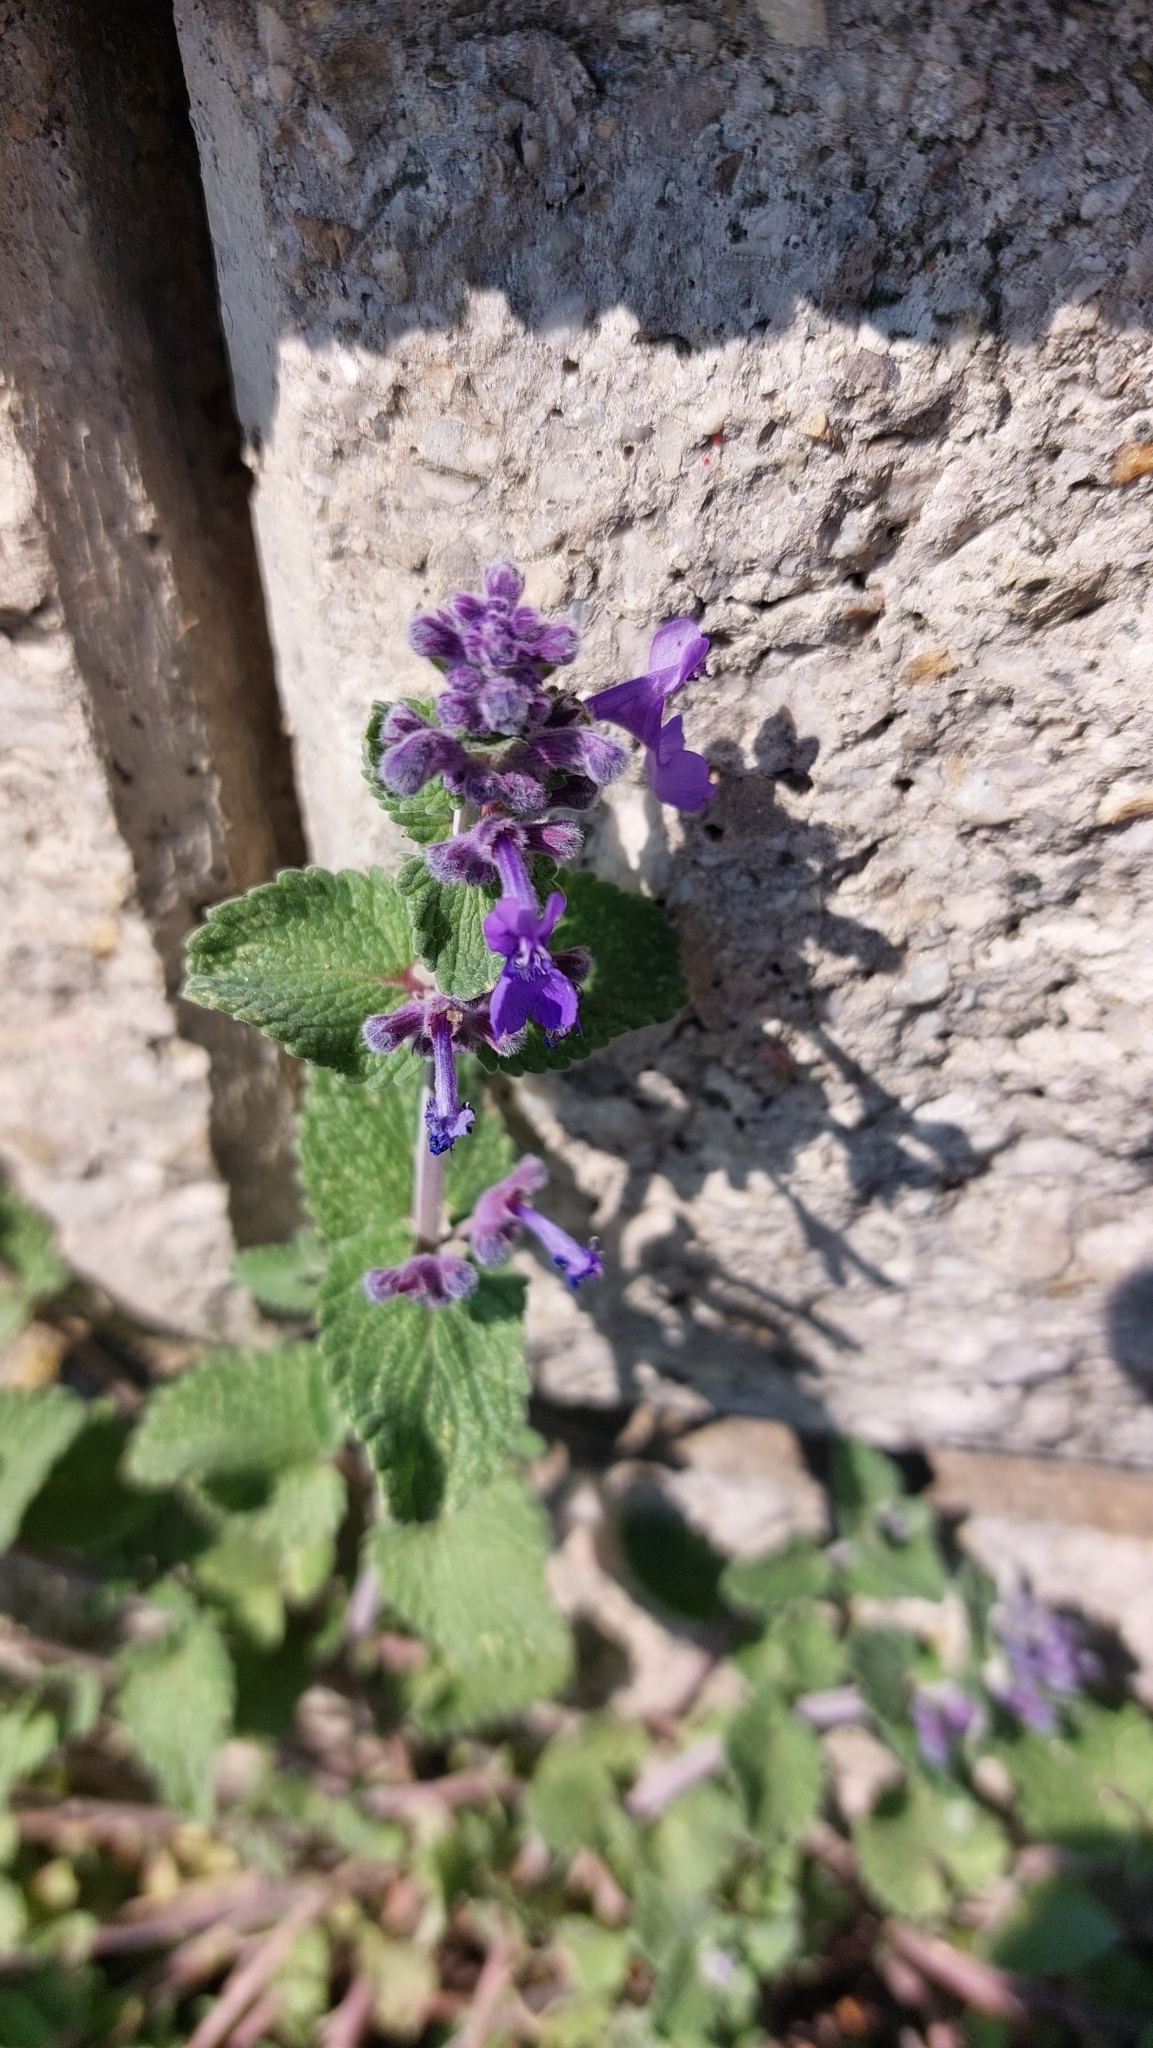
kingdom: Plantae
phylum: Tracheophyta
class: Magnoliopsida
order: Lamiales
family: Lamiaceae
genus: Nepeta
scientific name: Nepeta racemosa
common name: Raceme catnip
